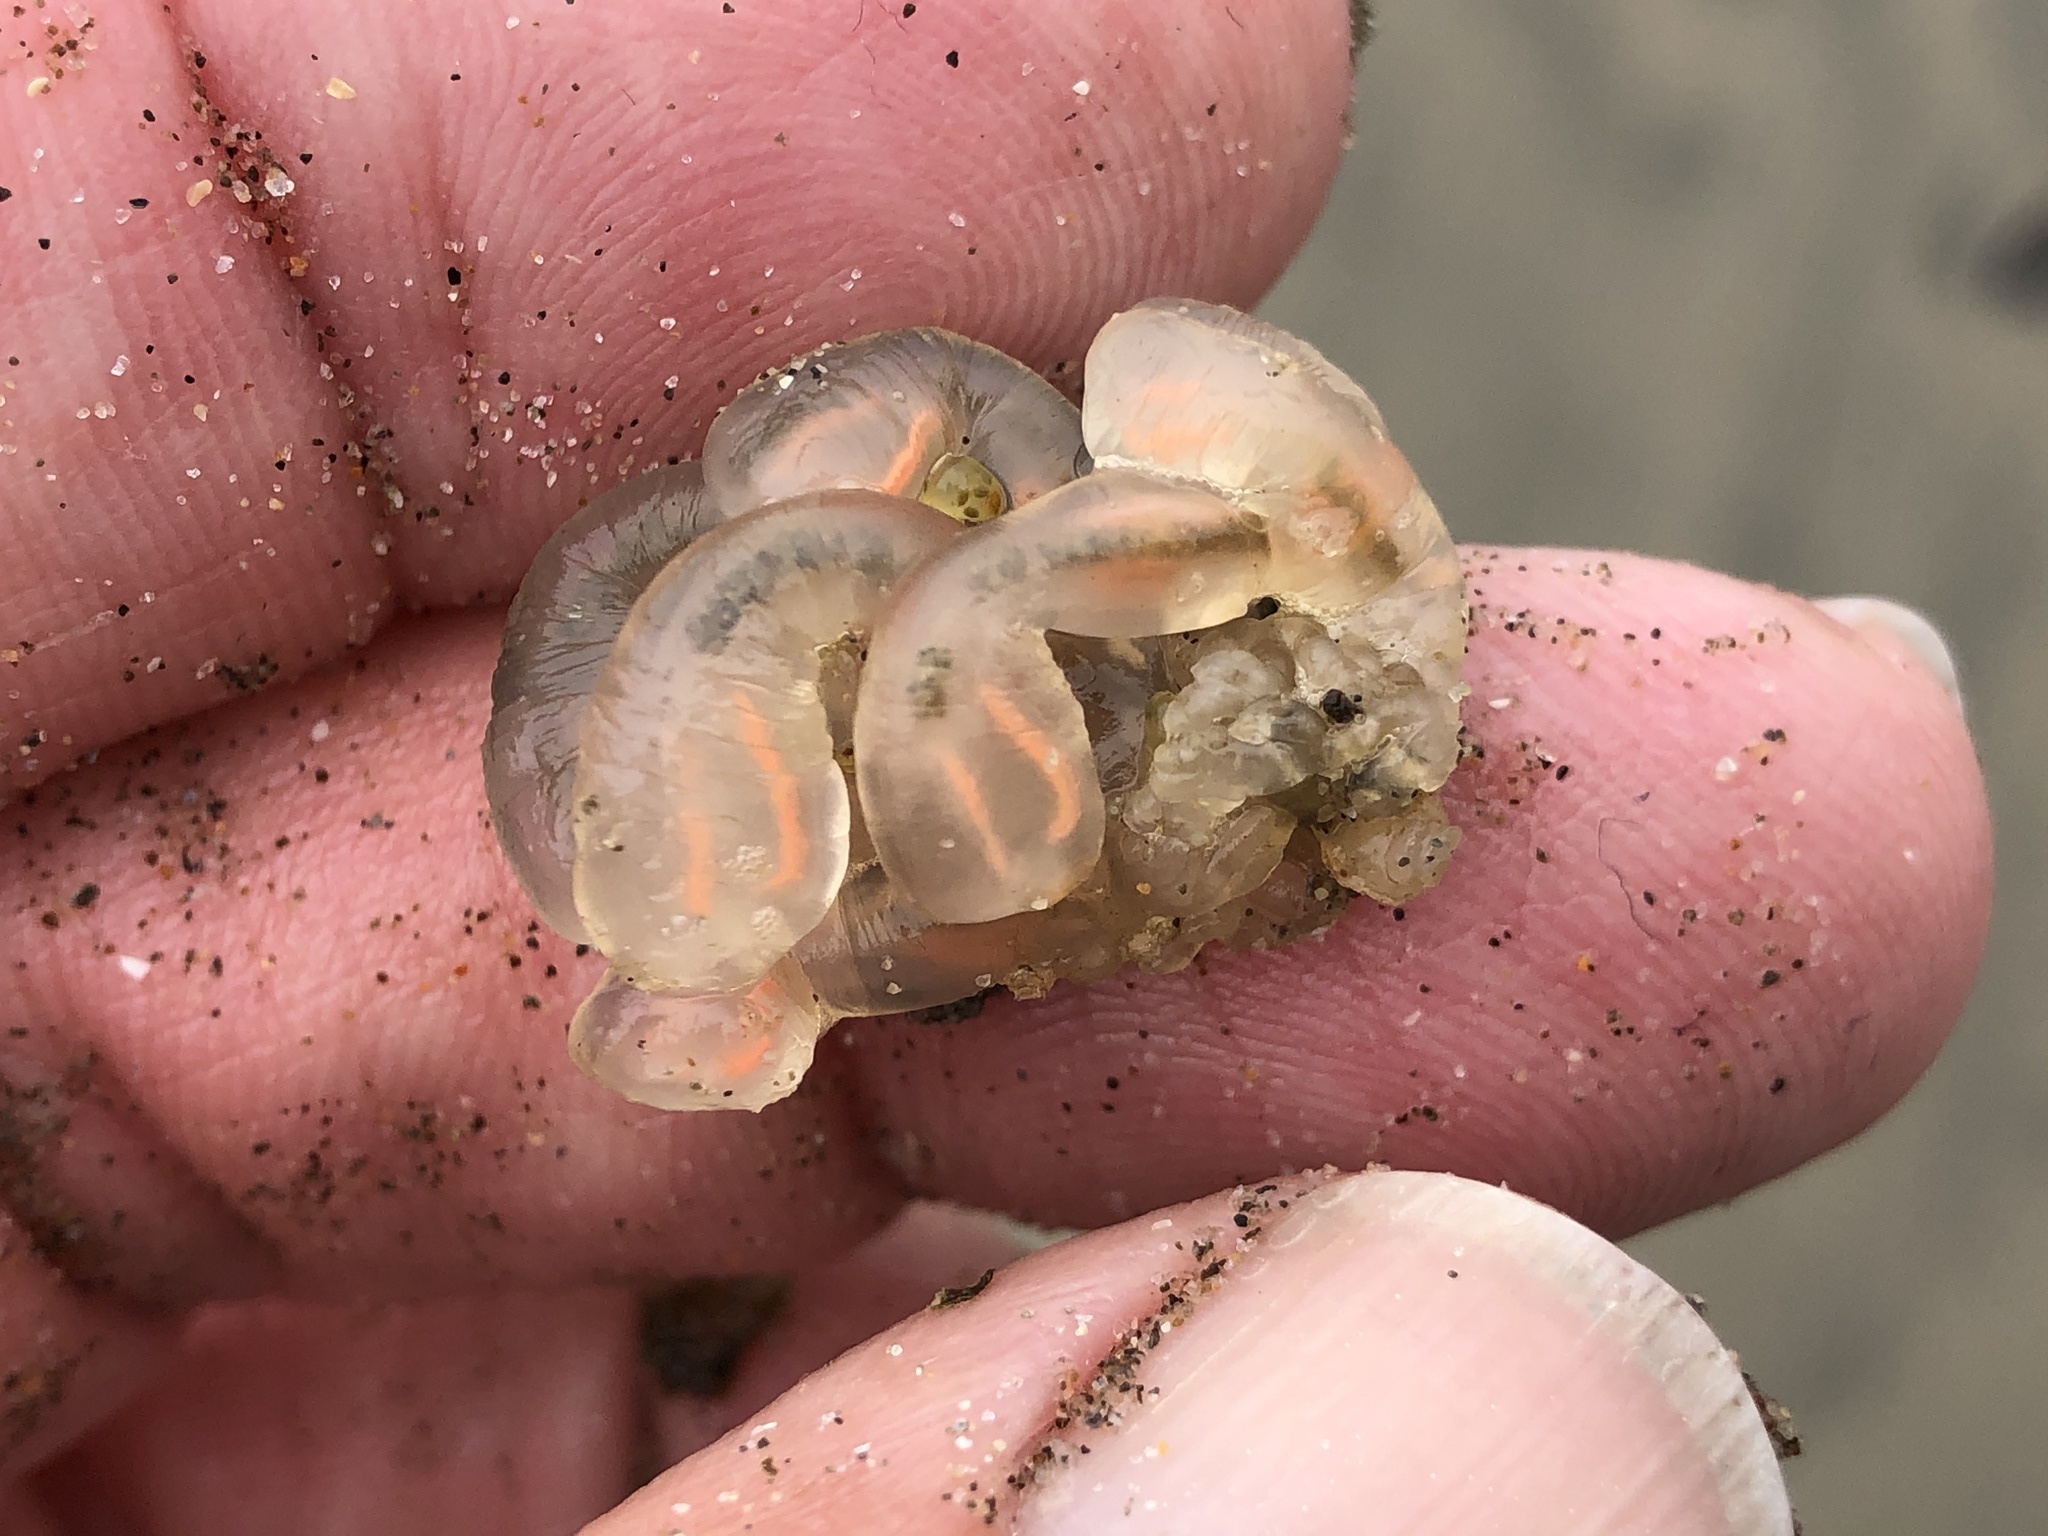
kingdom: Animalia
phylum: Chordata
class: Ascidiacea
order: Aplousobranchia
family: Clavelinidae
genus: Clavelina
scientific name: Clavelina huntsmani
